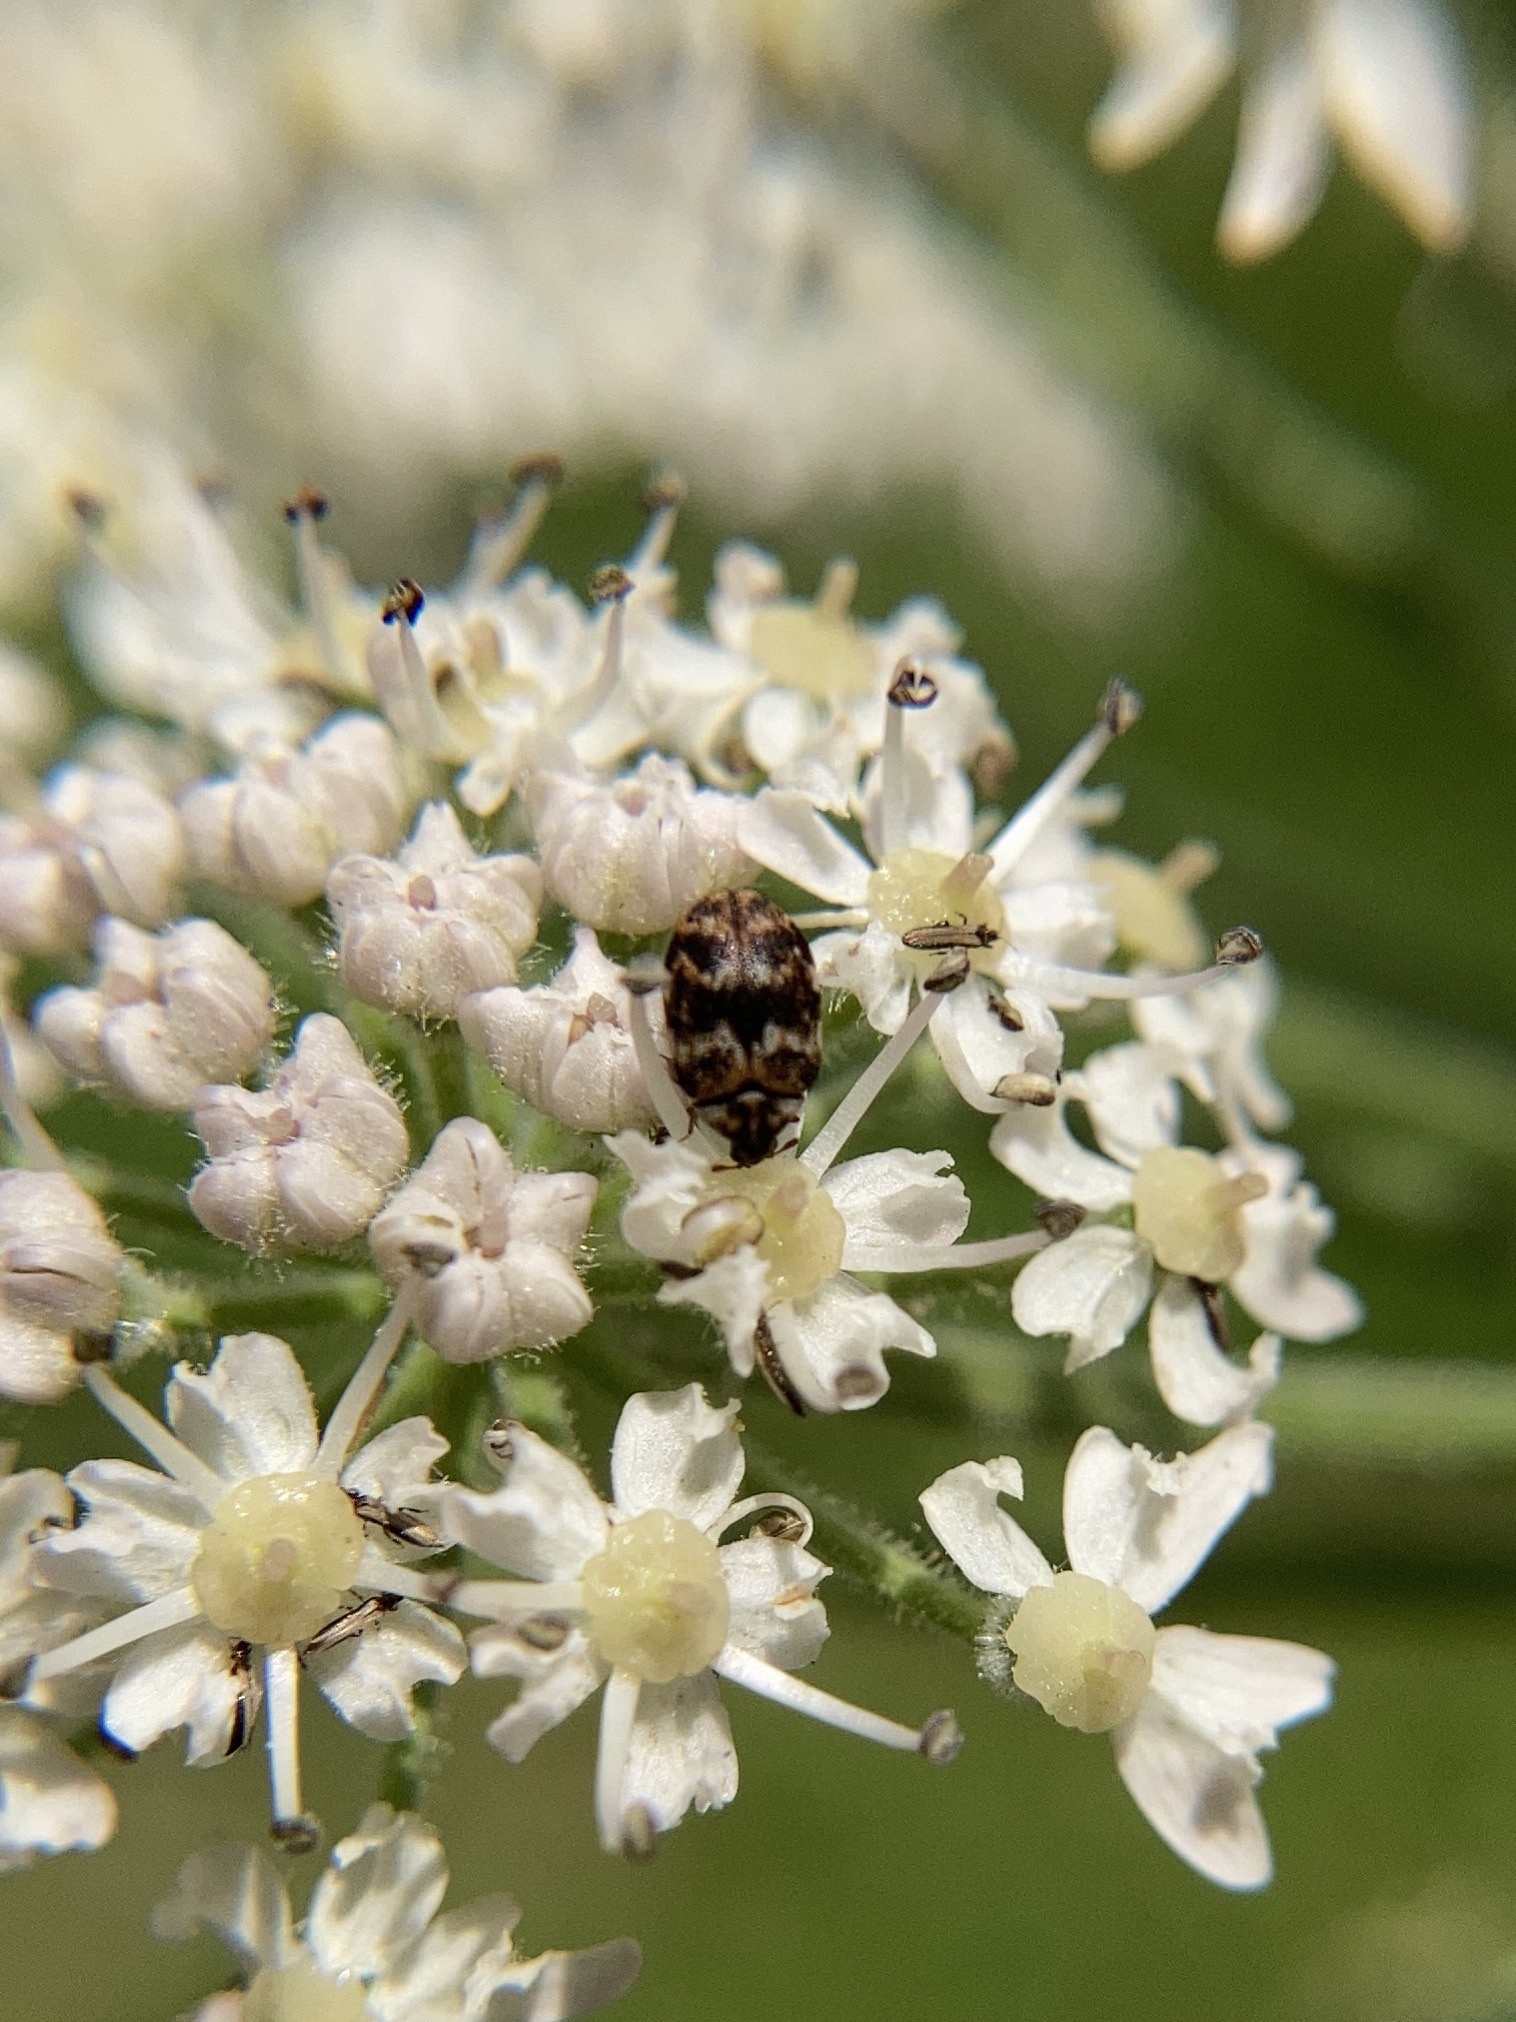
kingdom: Animalia
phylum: Arthropoda
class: Insecta
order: Coleoptera
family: Dermestidae
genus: Anthrenus
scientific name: Anthrenus verbasci
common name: Varied carpet beetle
